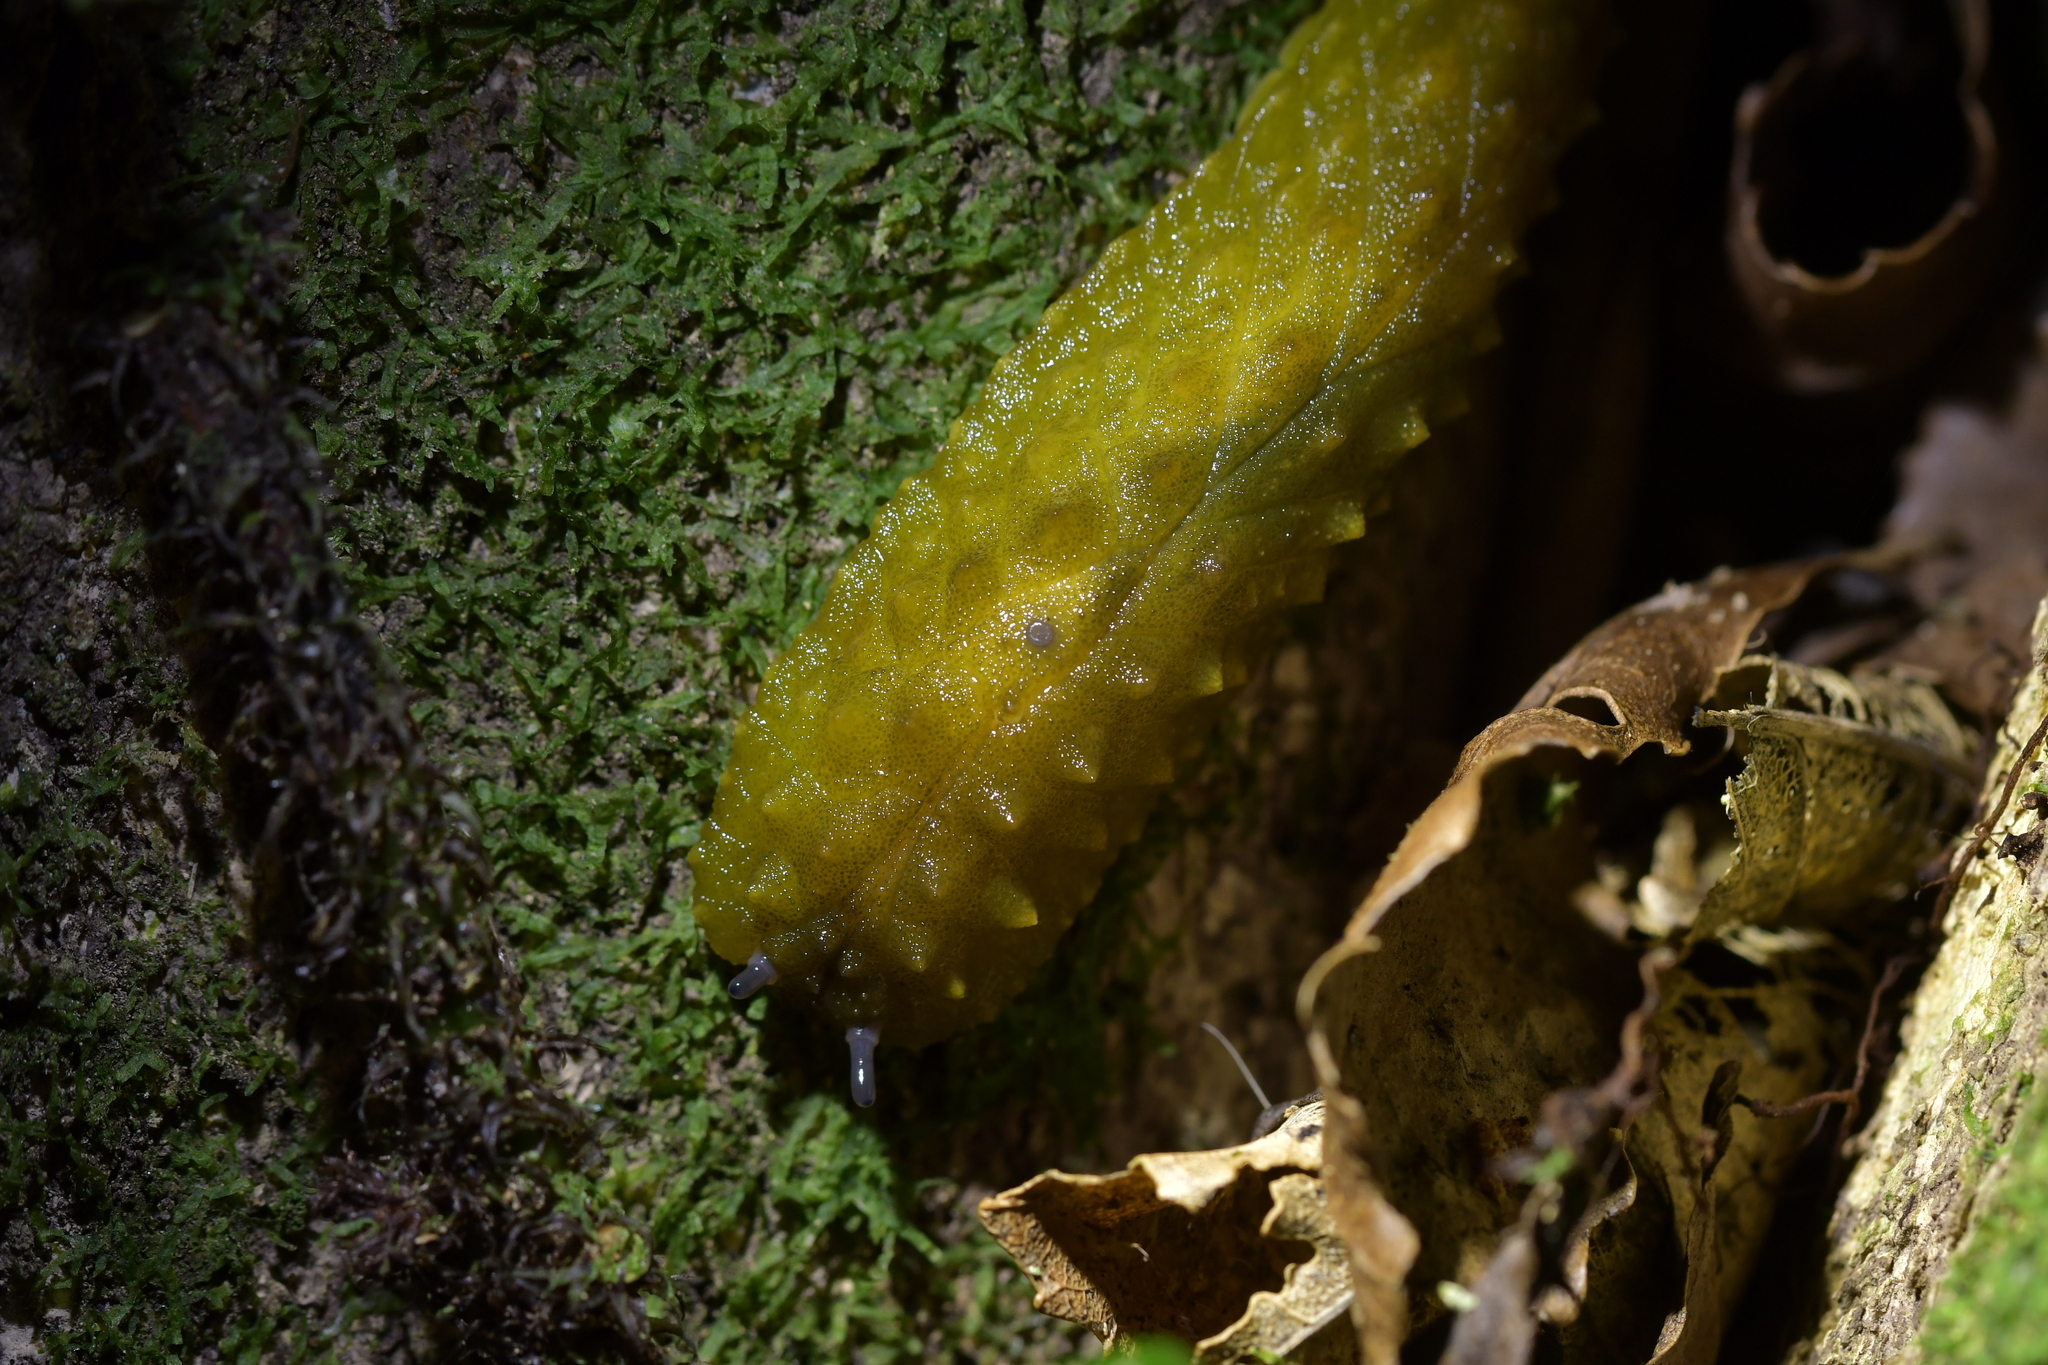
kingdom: Animalia
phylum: Mollusca
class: Gastropoda
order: Stylommatophora
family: Athoracophoridae
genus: Athoracophorus
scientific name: Athoracophorus papillatus
